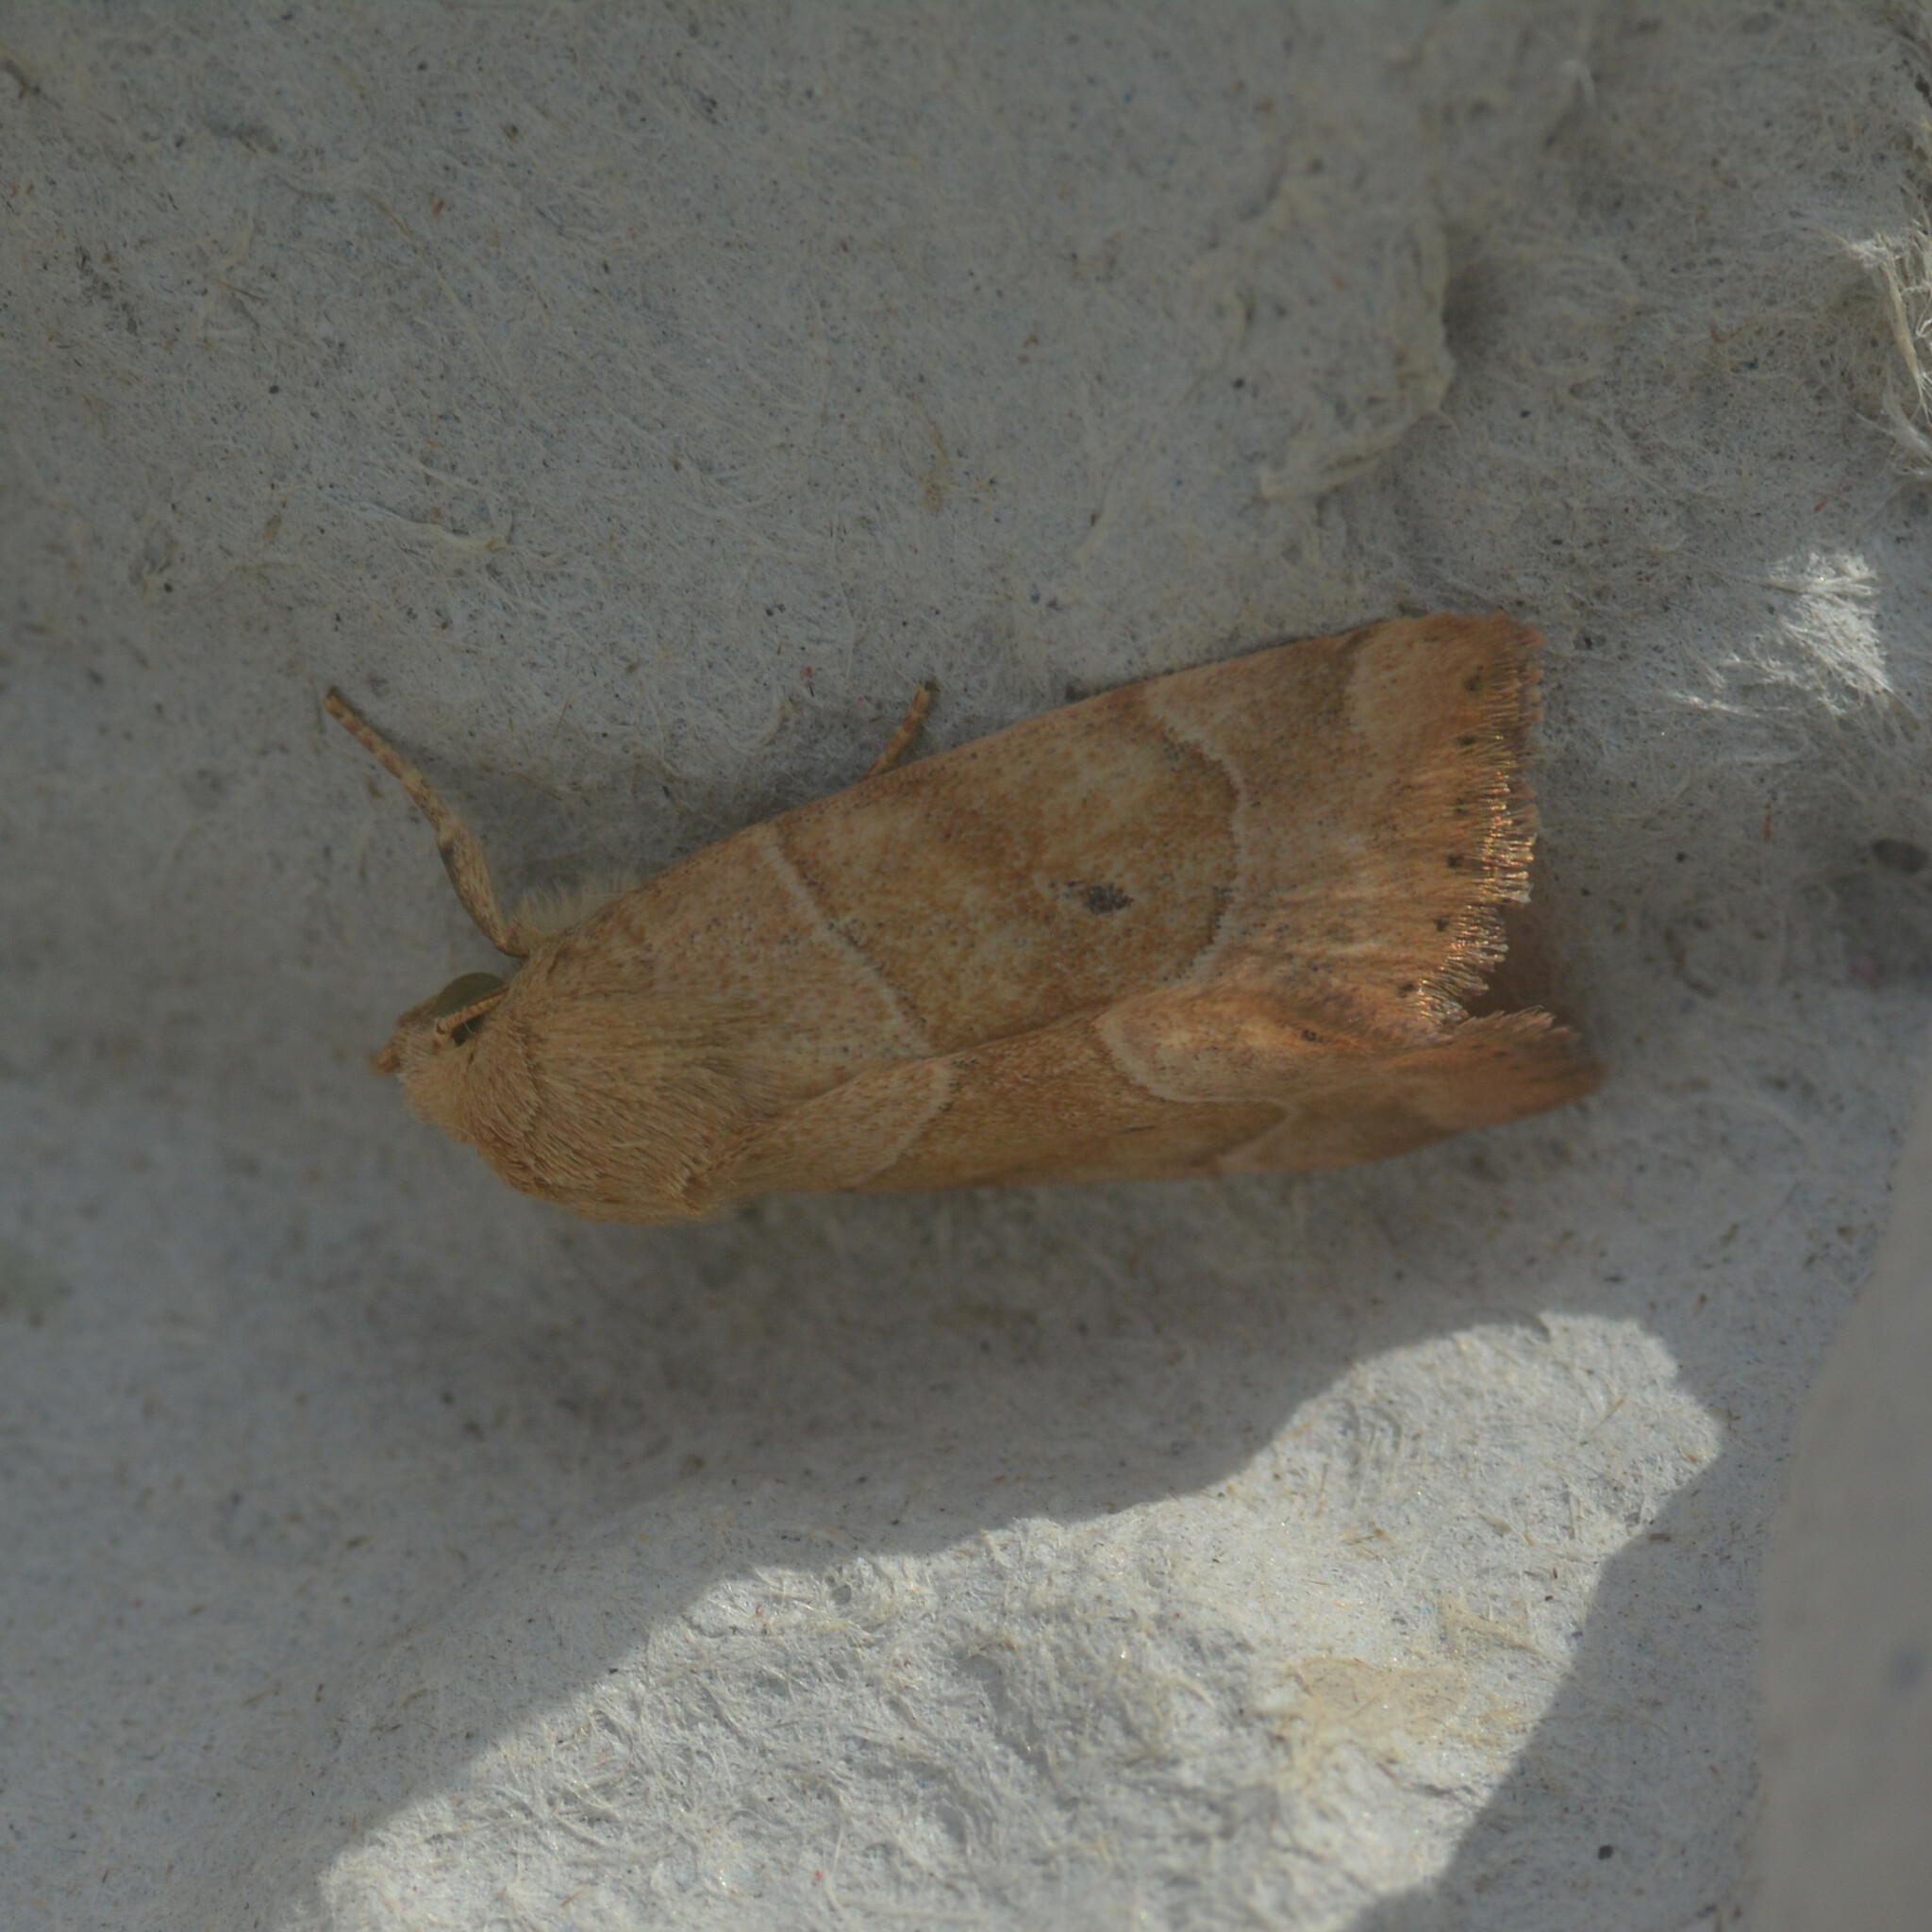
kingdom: Animalia
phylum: Arthropoda
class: Insecta
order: Lepidoptera
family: Noctuidae
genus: Cosmia
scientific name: Cosmia trapezina
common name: Dun-bar
